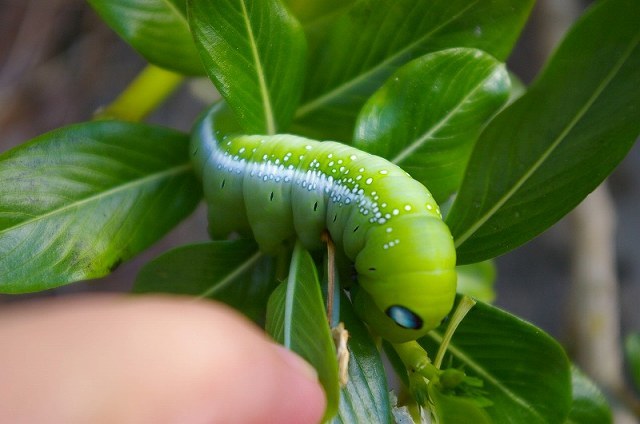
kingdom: Animalia
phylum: Arthropoda
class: Insecta
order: Lepidoptera
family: Sphingidae
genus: Daphnis
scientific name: Daphnis nerii
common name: Oleander hawk-moth
